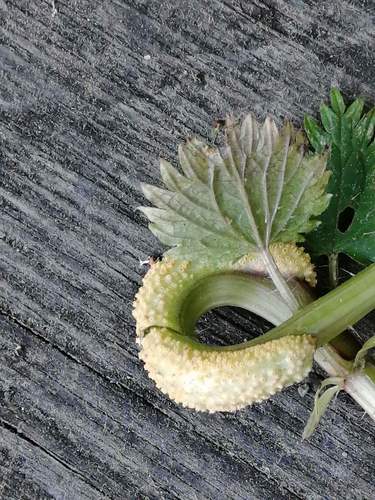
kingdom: Fungi
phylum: Basidiomycota
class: Pucciniomycetes
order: Pucciniales
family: Pucciniaceae
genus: Puccinia
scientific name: Puccinia urticata
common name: Nettle clustercup rust fungus
